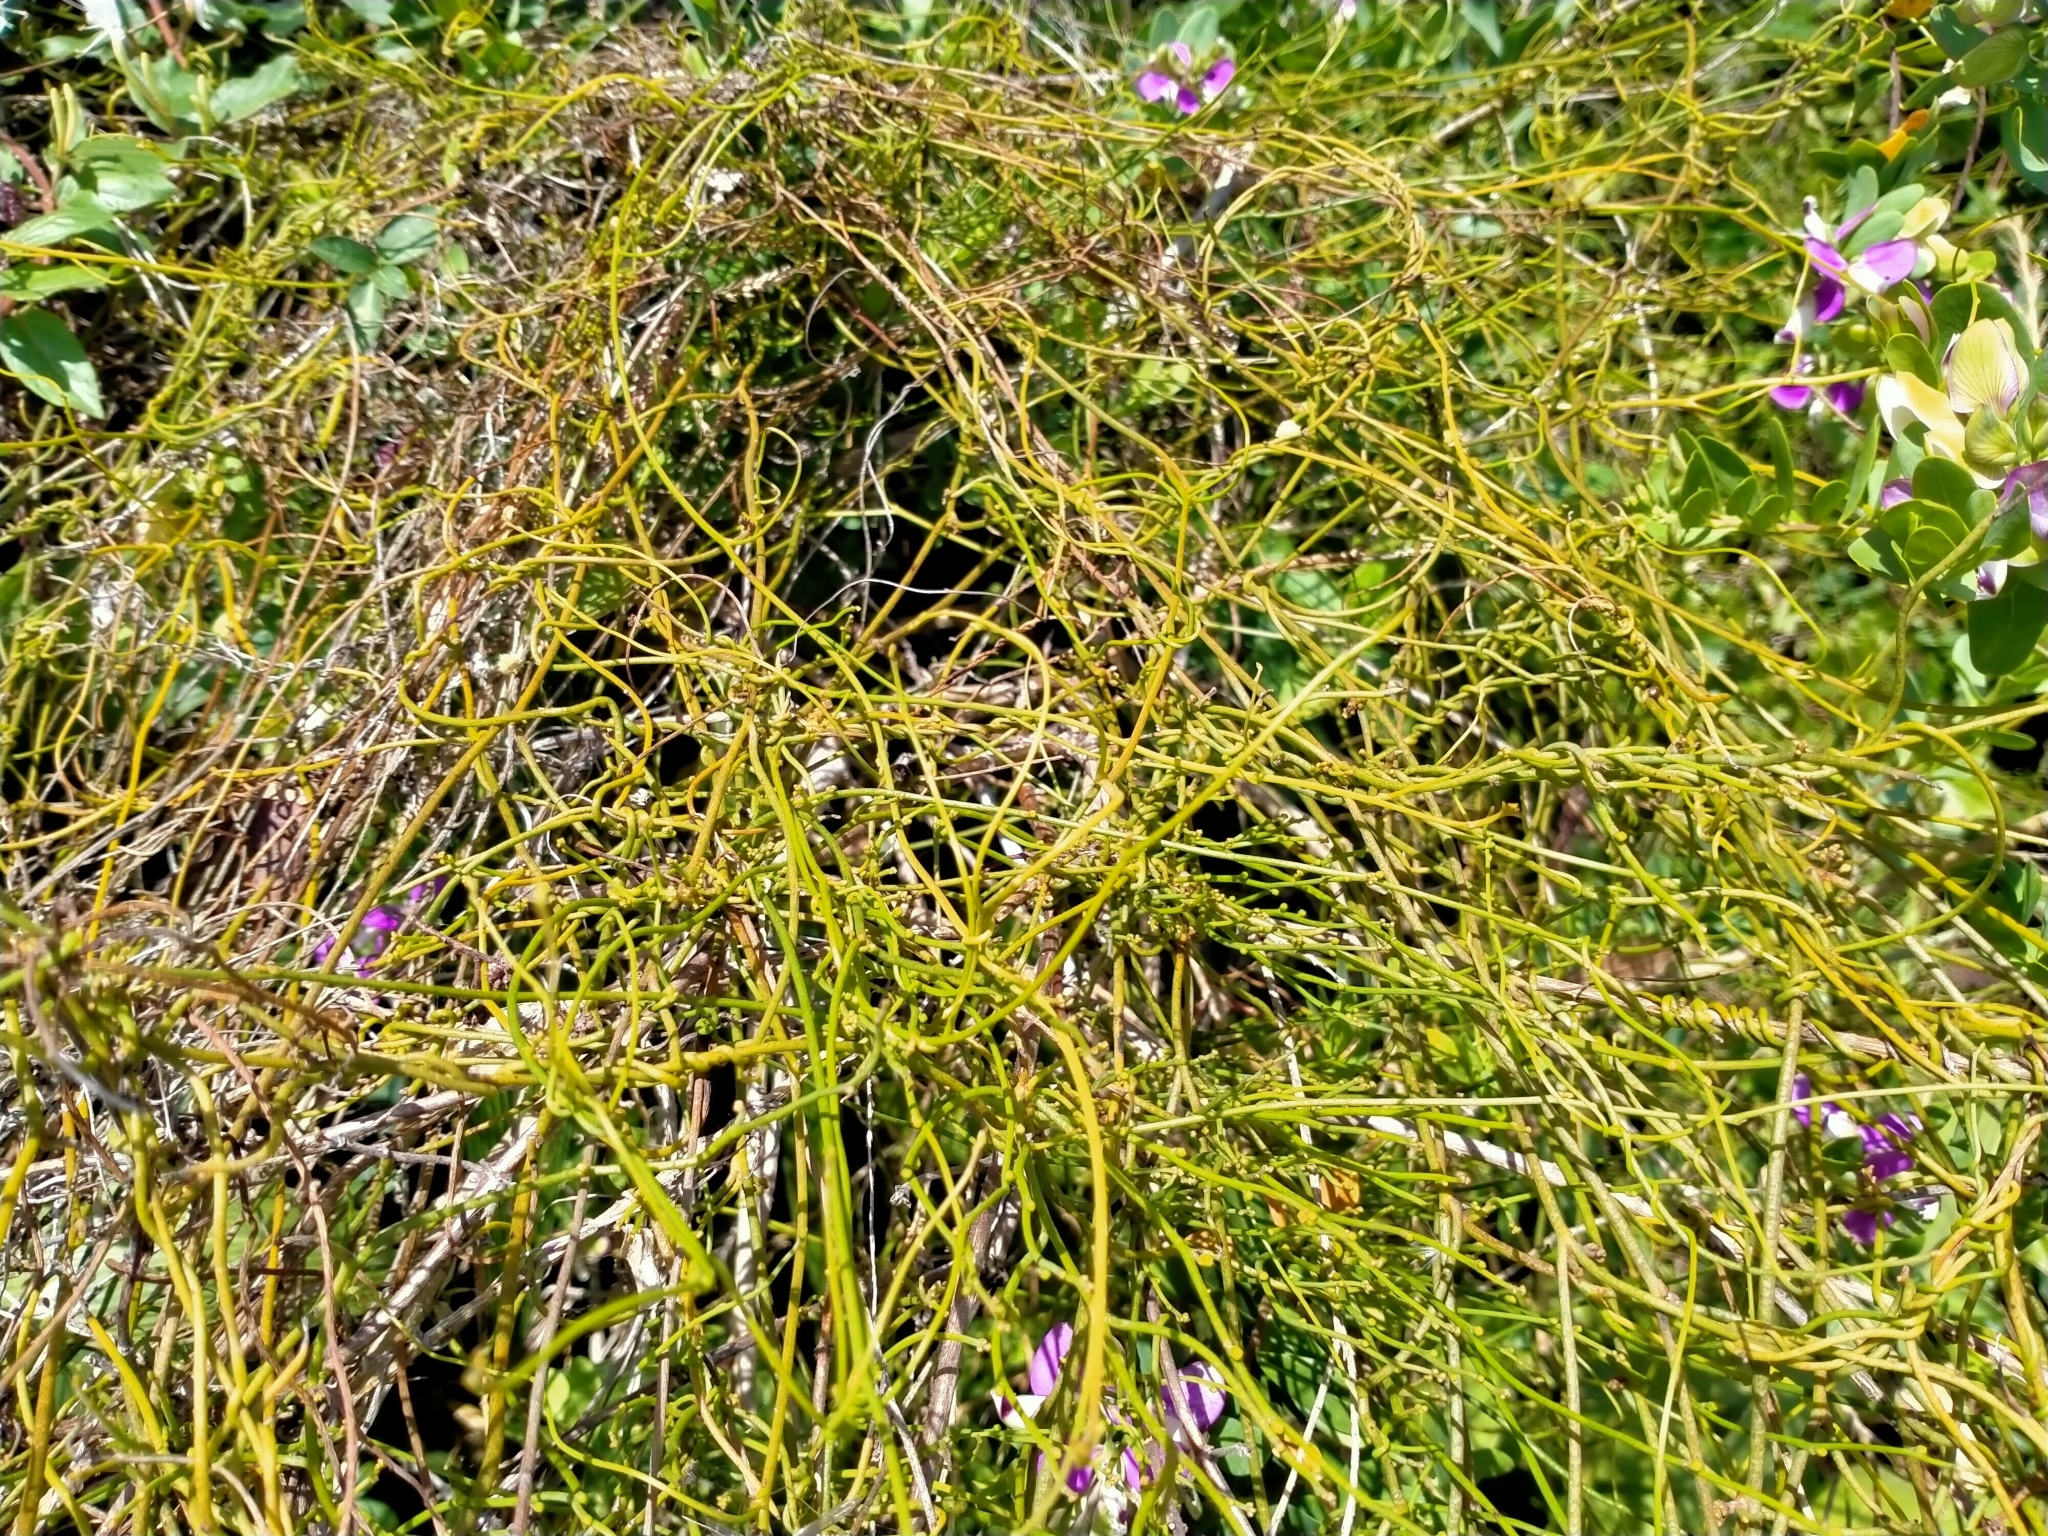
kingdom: Plantae
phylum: Tracheophyta
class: Magnoliopsida
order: Laurales
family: Lauraceae
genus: Cassytha
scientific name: Cassytha paniculata
